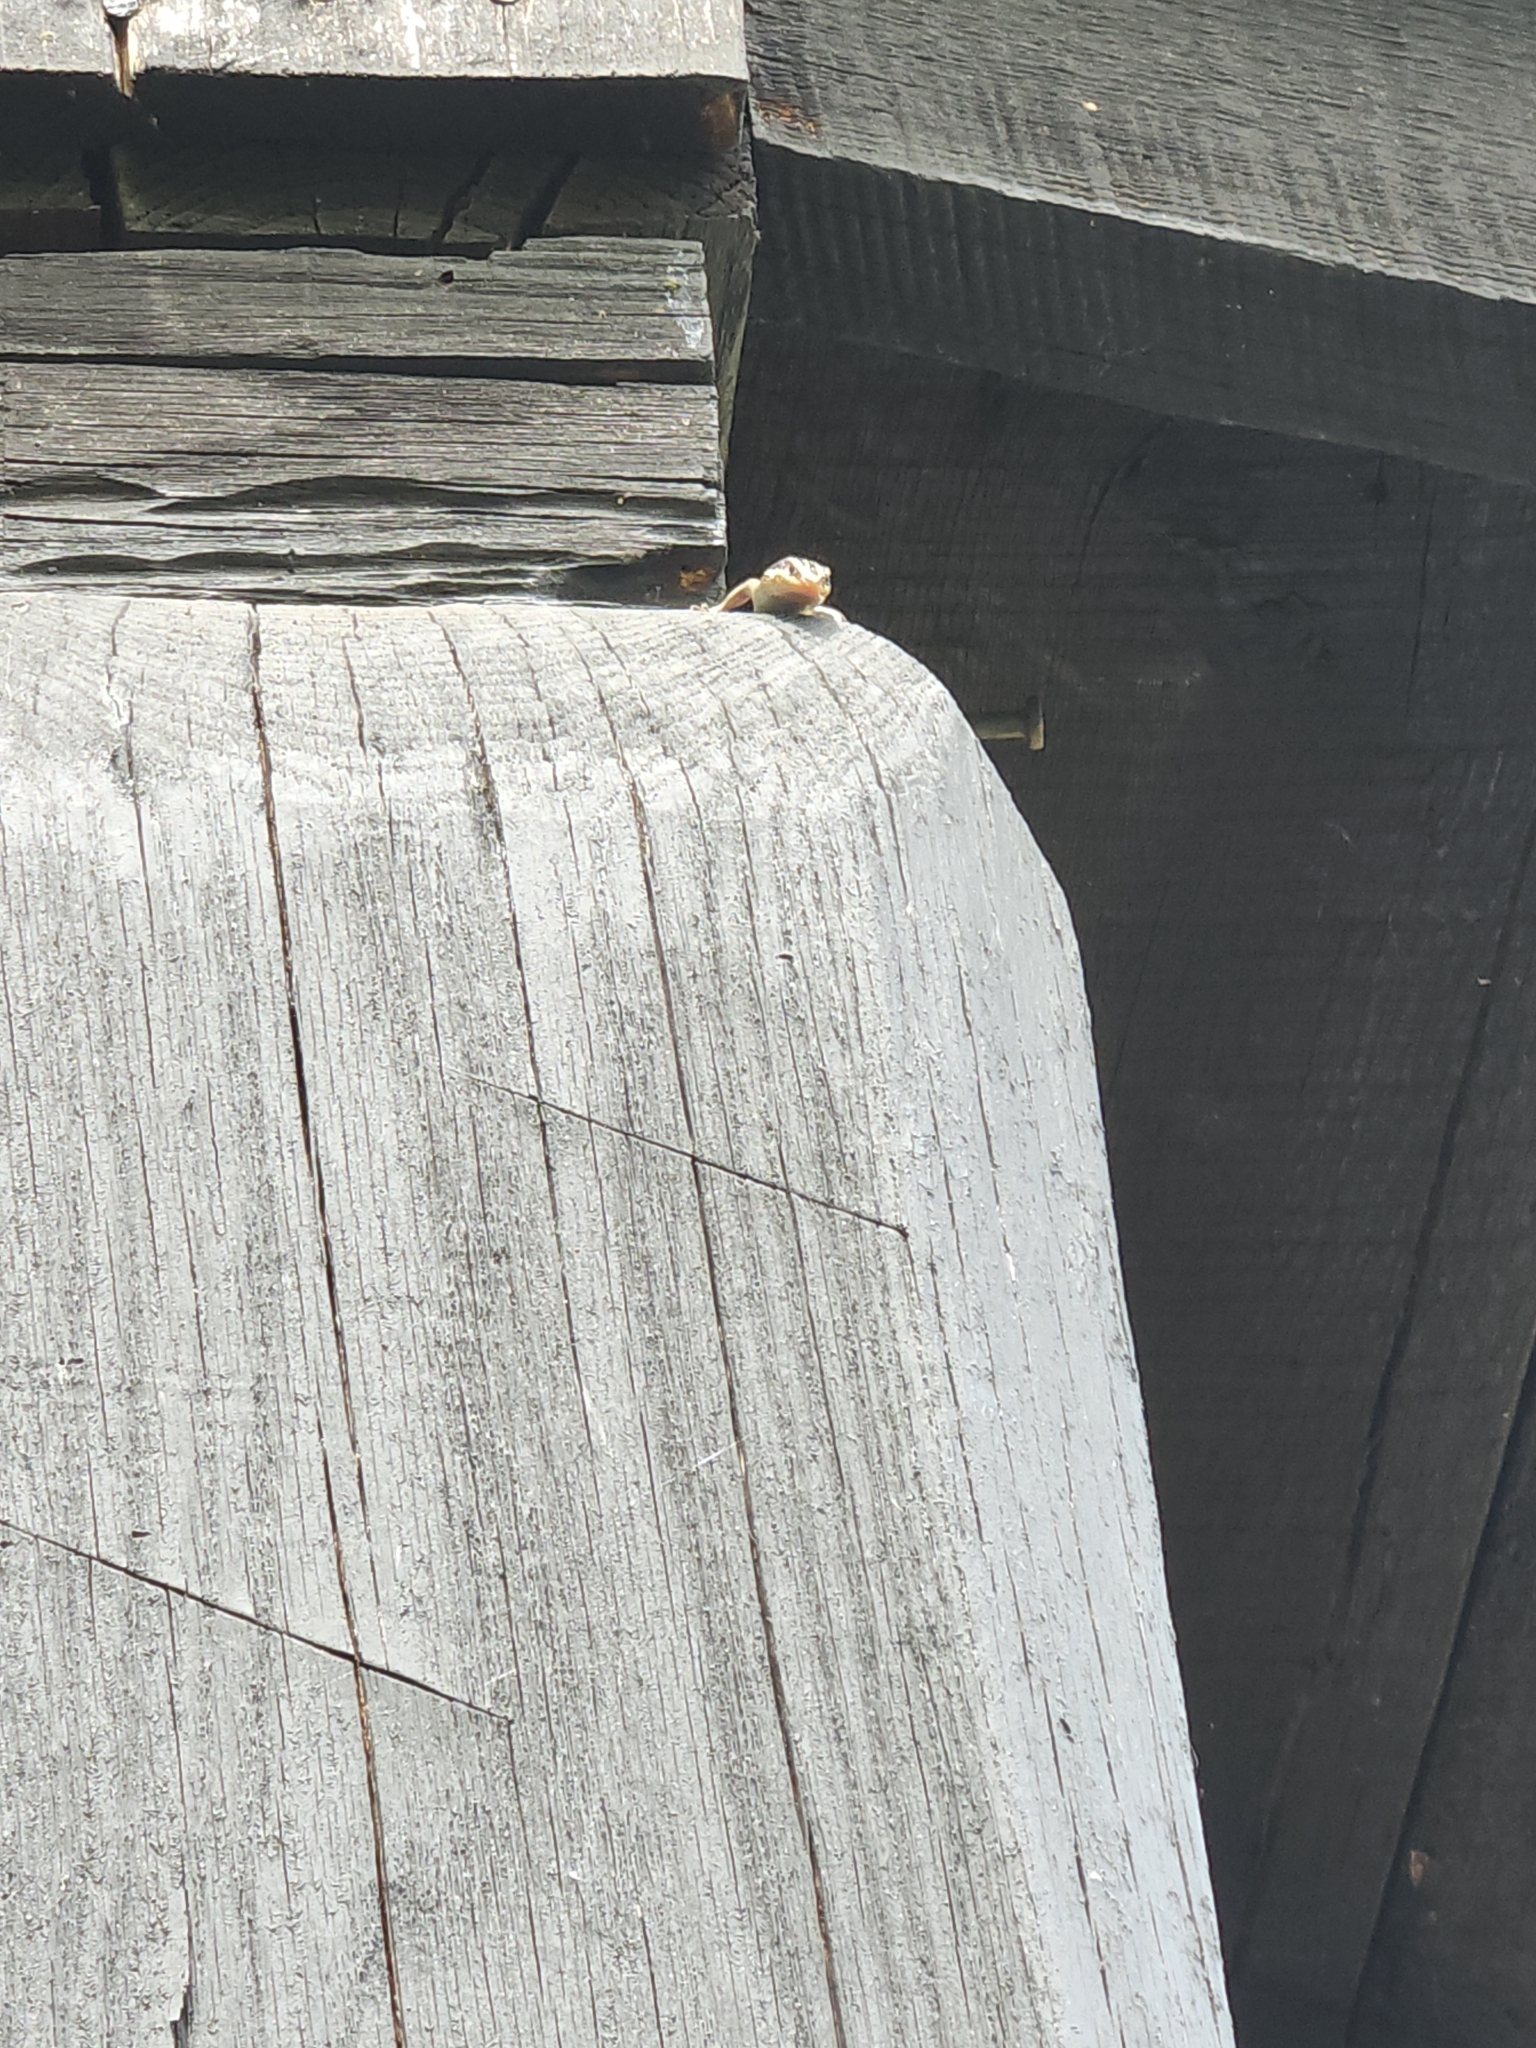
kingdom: Animalia
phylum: Chordata
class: Squamata
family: Scincidae
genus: Plestiodon
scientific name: Plestiodon fasciatus
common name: Five-lined skink
